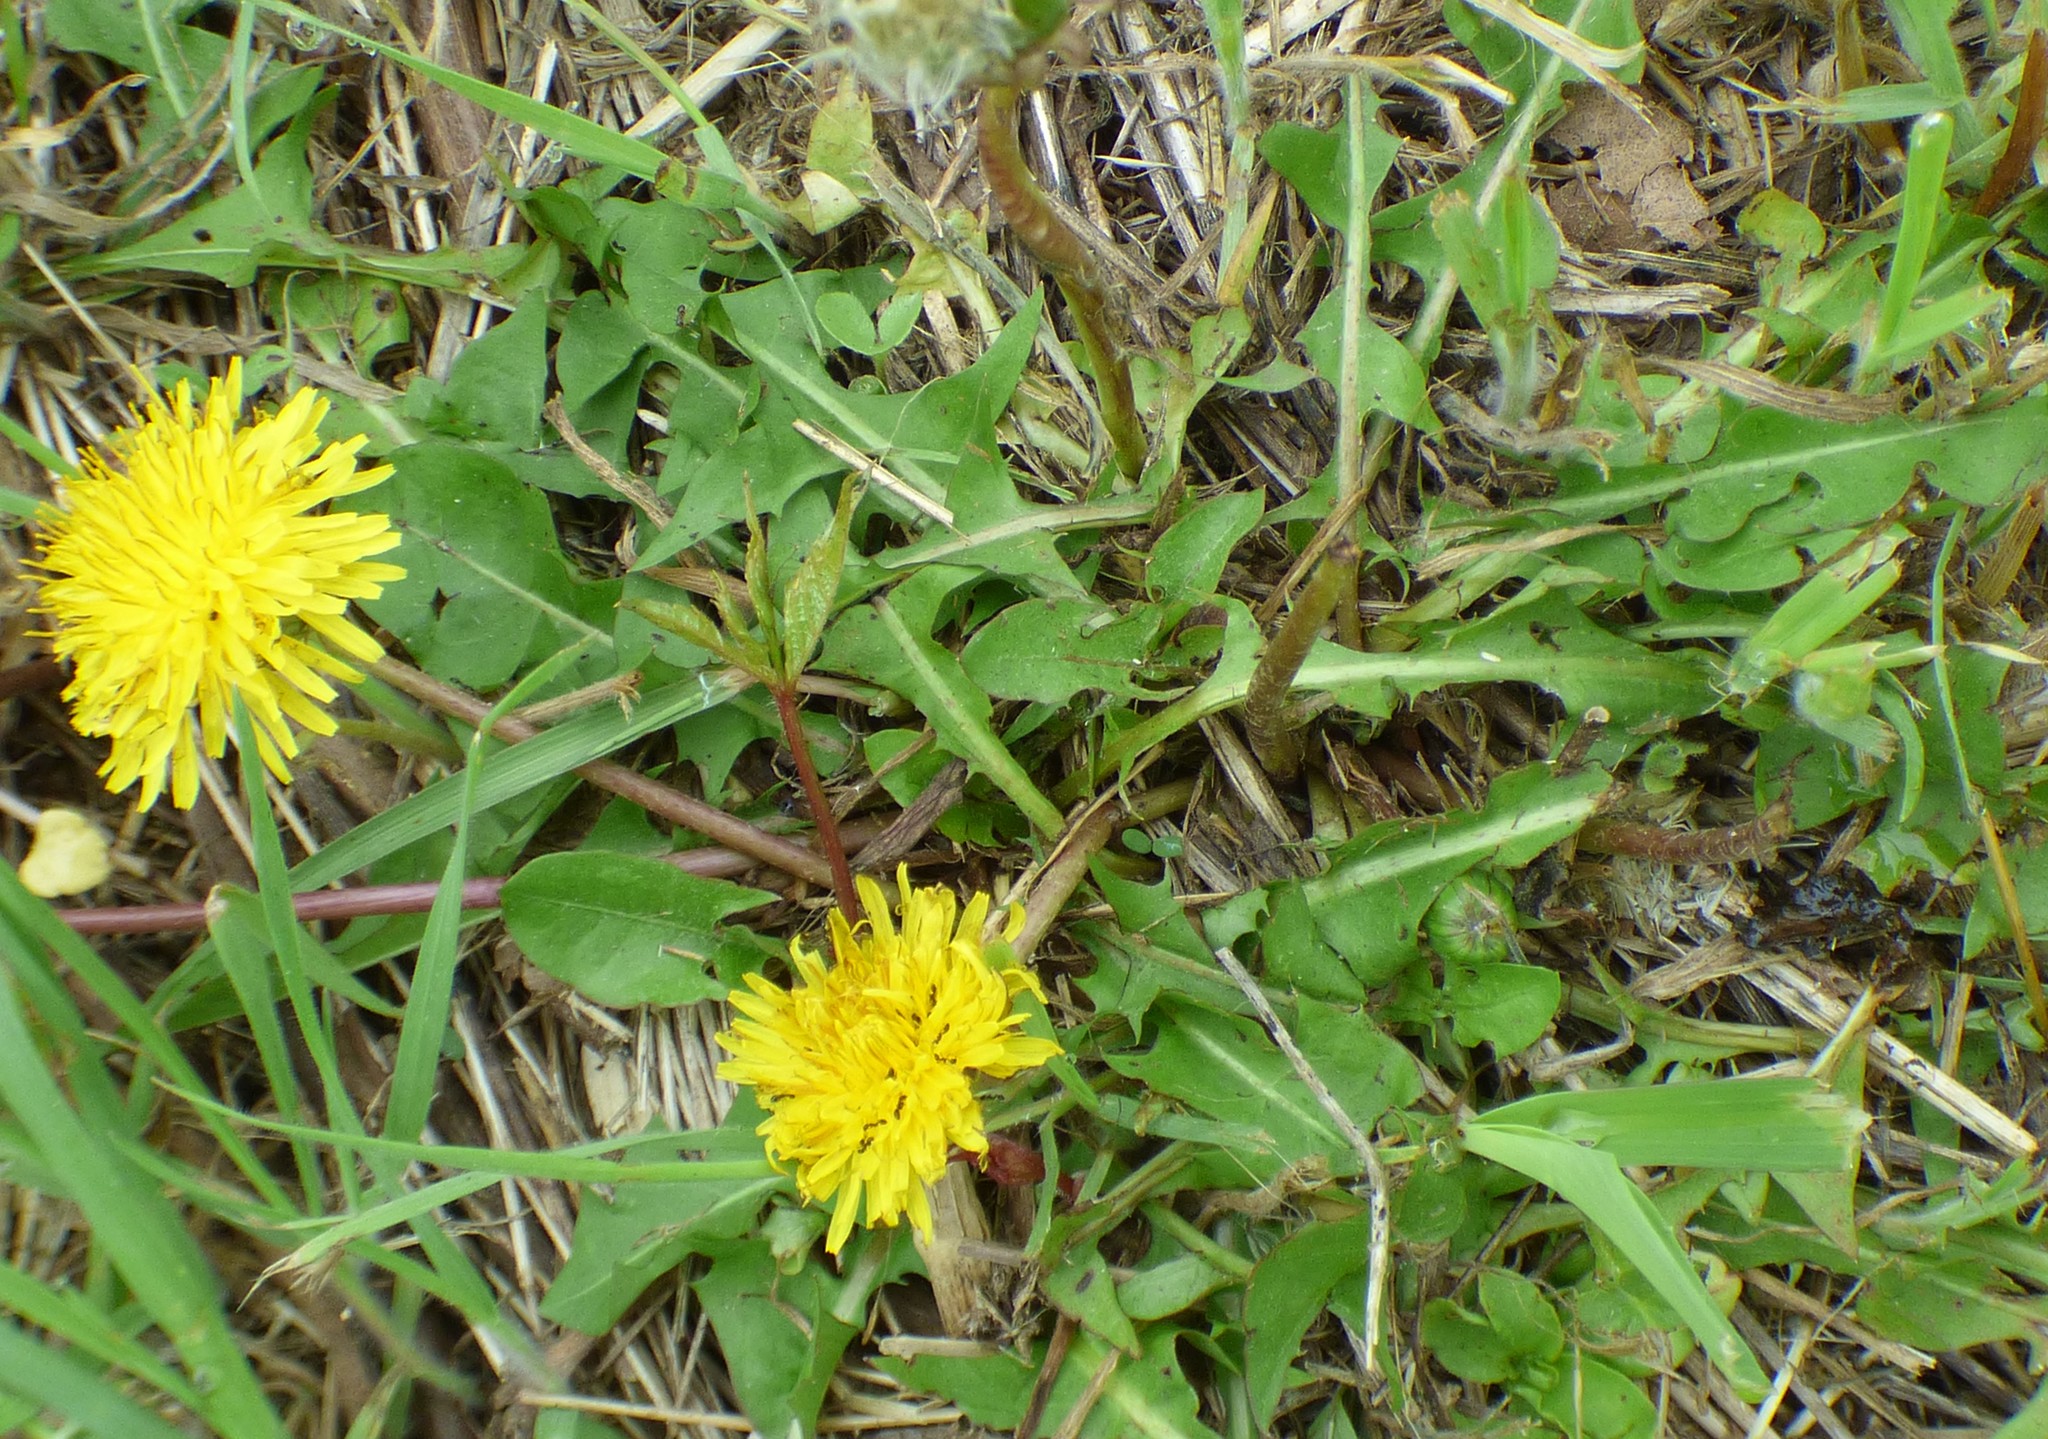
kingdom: Plantae
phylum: Tracheophyta
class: Magnoliopsida
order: Asterales
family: Asteraceae
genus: Taraxacum
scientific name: Taraxacum officinale
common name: Common dandelion
